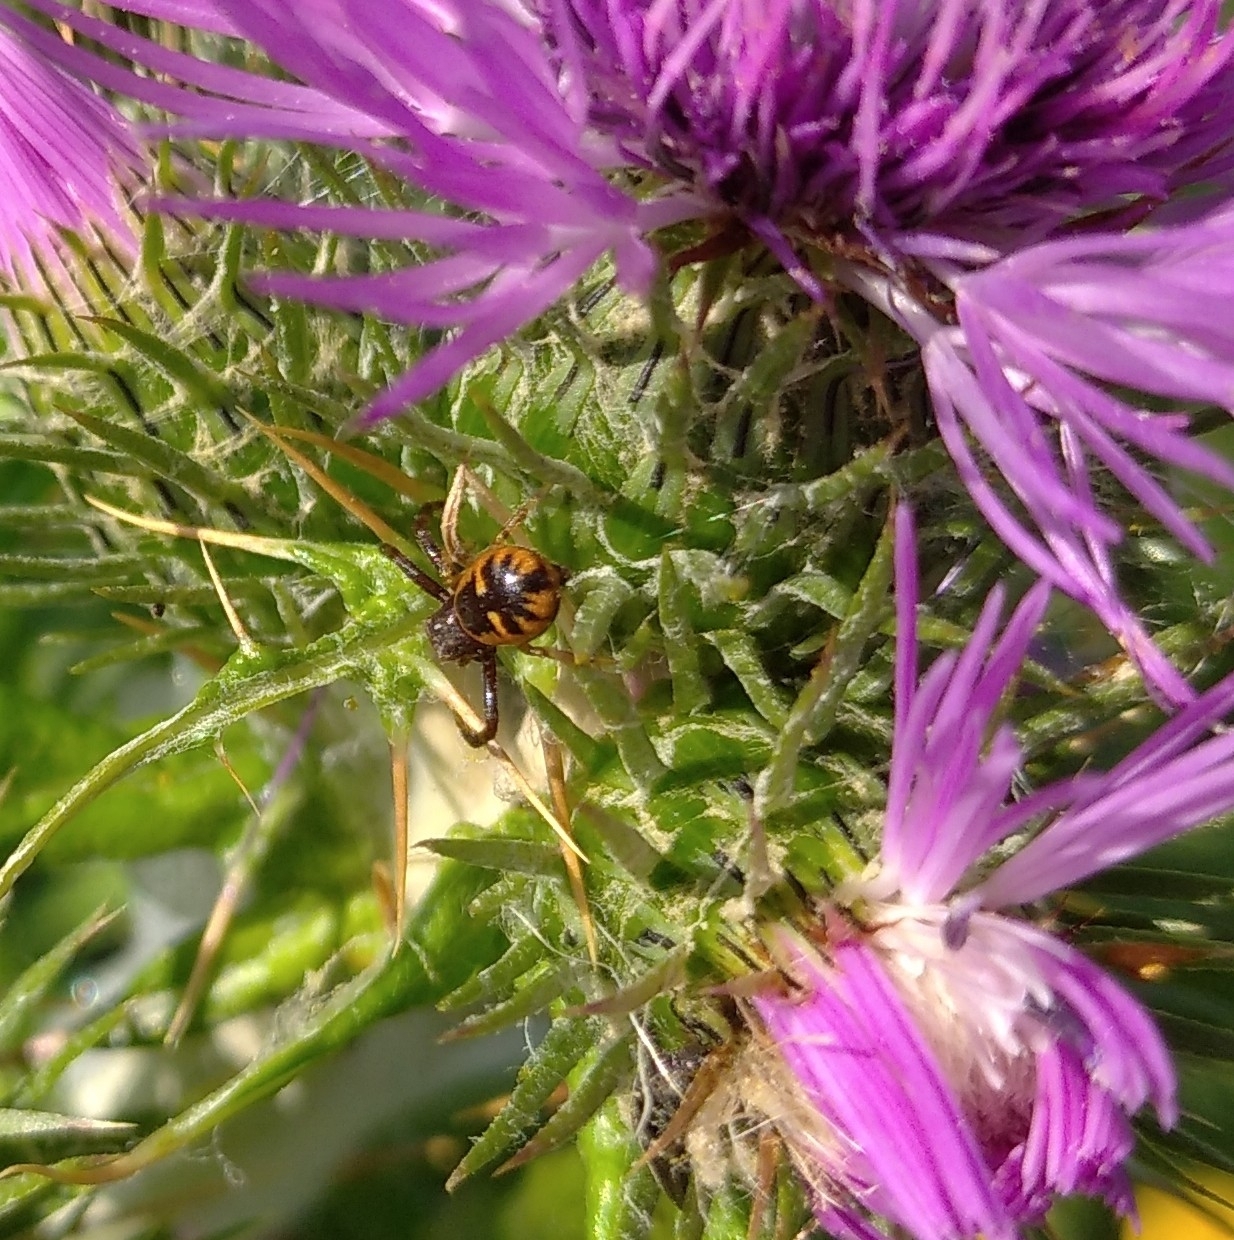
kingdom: Animalia
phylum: Arthropoda
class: Arachnida
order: Araneae
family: Thomisidae
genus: Synema
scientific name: Synema globosum
